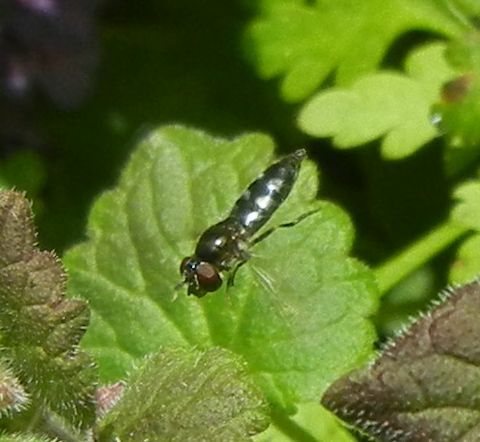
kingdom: Animalia
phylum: Arthropoda
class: Insecta
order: Diptera
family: Syrphidae
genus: Platycheirus
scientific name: Platycheirus albimanus
